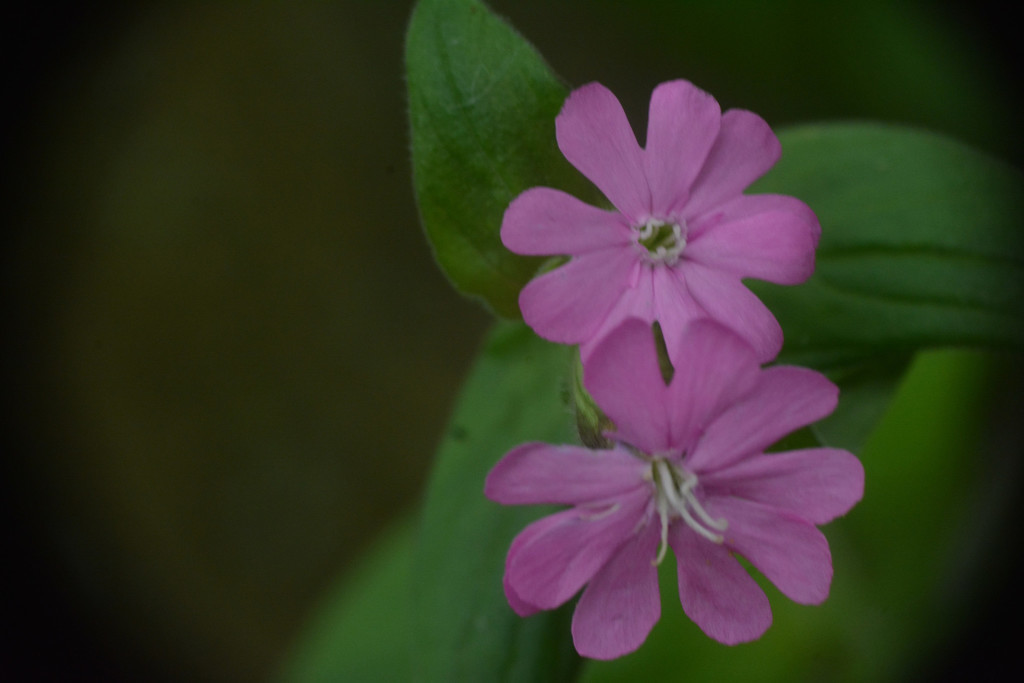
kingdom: Plantae
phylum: Tracheophyta
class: Magnoliopsida
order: Caryophyllales
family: Caryophyllaceae
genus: Silene
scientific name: Silene dioica
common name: Red campion
